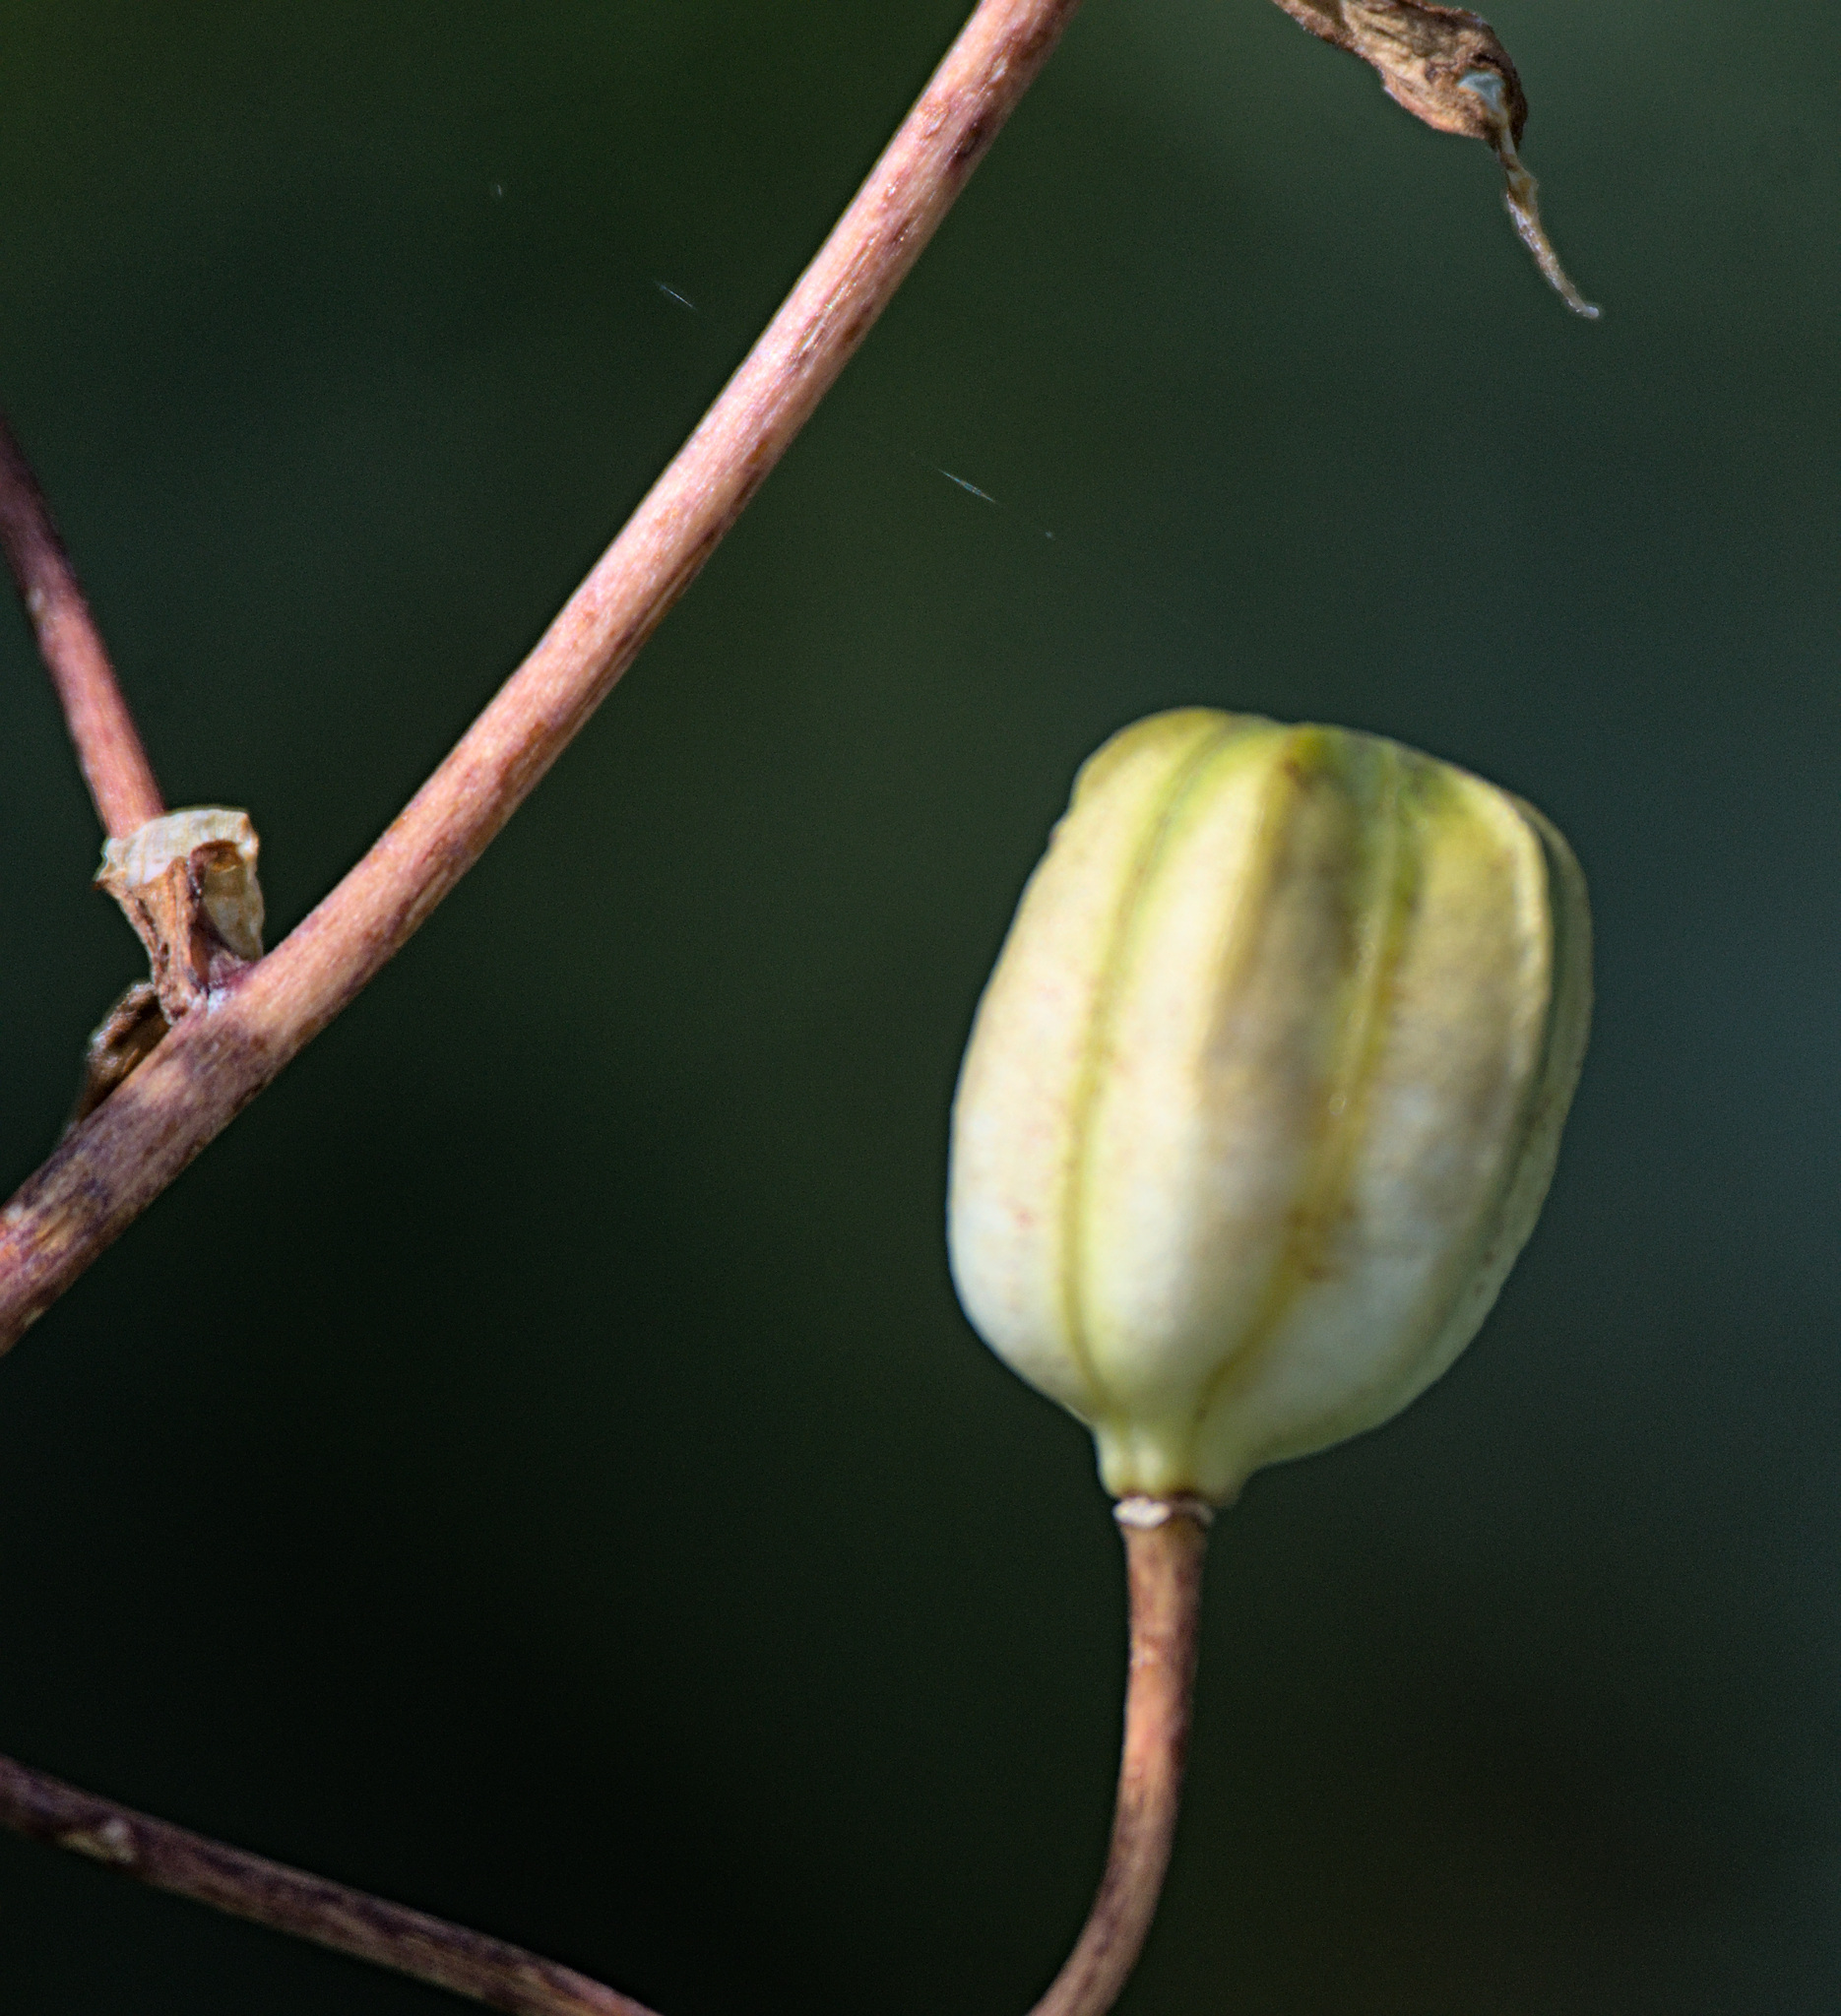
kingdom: Plantae
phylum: Tracheophyta
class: Liliopsida
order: Liliales
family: Liliaceae
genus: Lilium
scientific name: Lilium martagon
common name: Martagon lily
